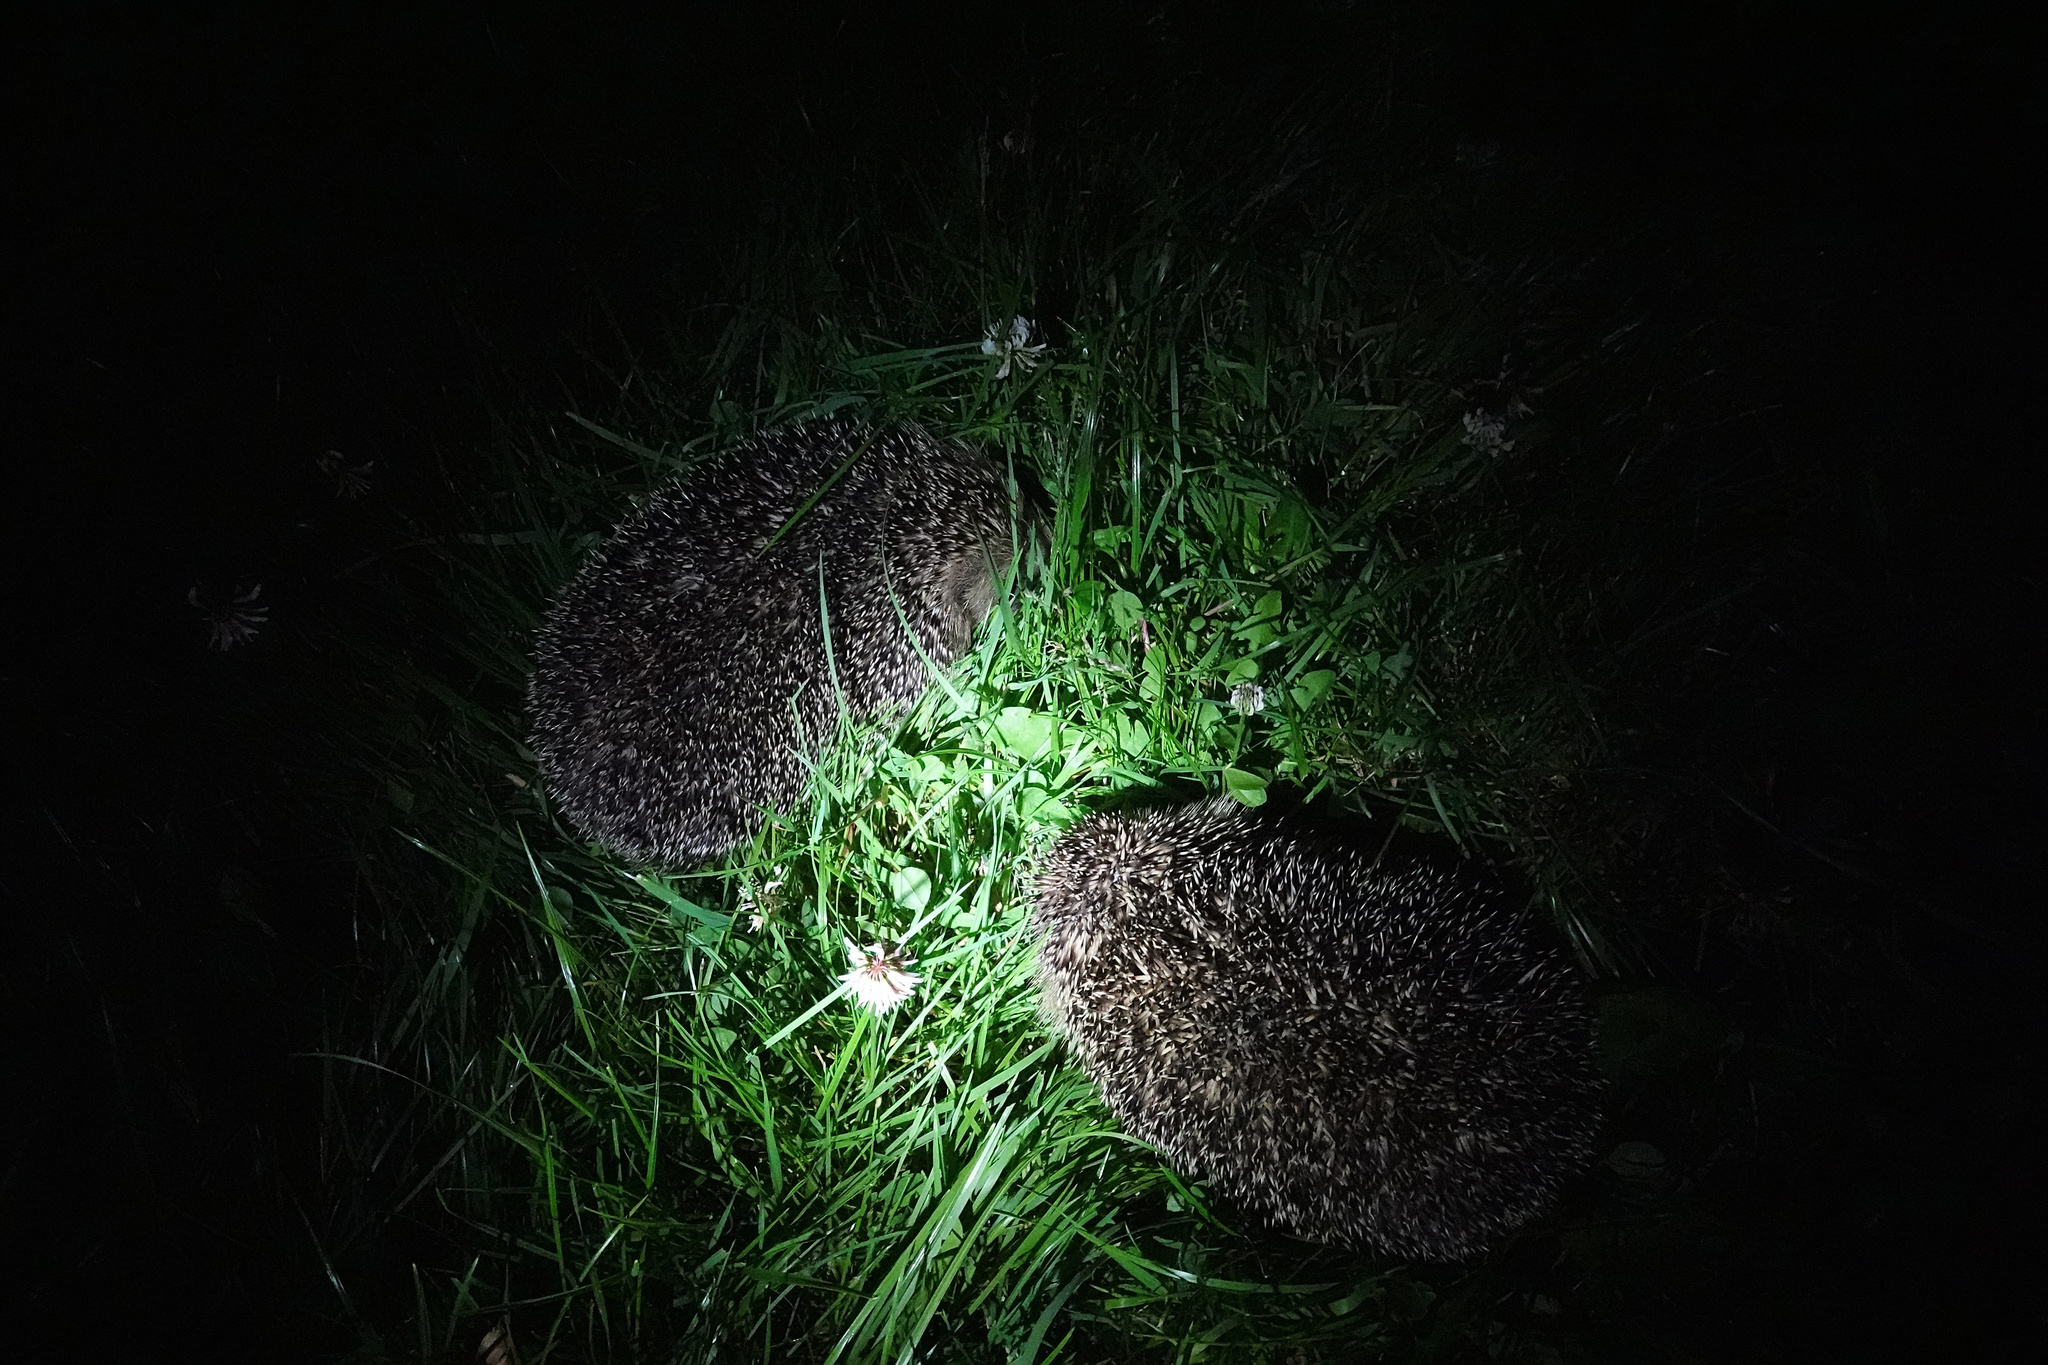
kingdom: Animalia
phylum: Chordata
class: Mammalia
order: Erinaceomorpha
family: Erinaceidae
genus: Erinaceus
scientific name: Erinaceus europaeus
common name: West european hedgehog
